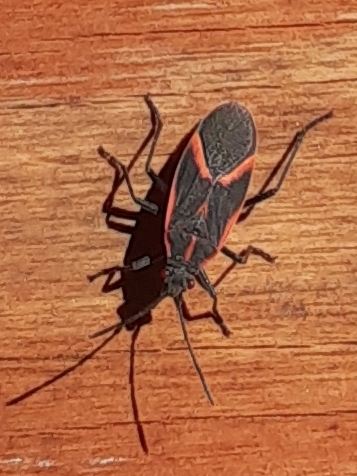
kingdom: Animalia
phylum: Arthropoda
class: Insecta
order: Hemiptera
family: Rhopalidae
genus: Boisea
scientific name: Boisea trivittata
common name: Boxelder bug
